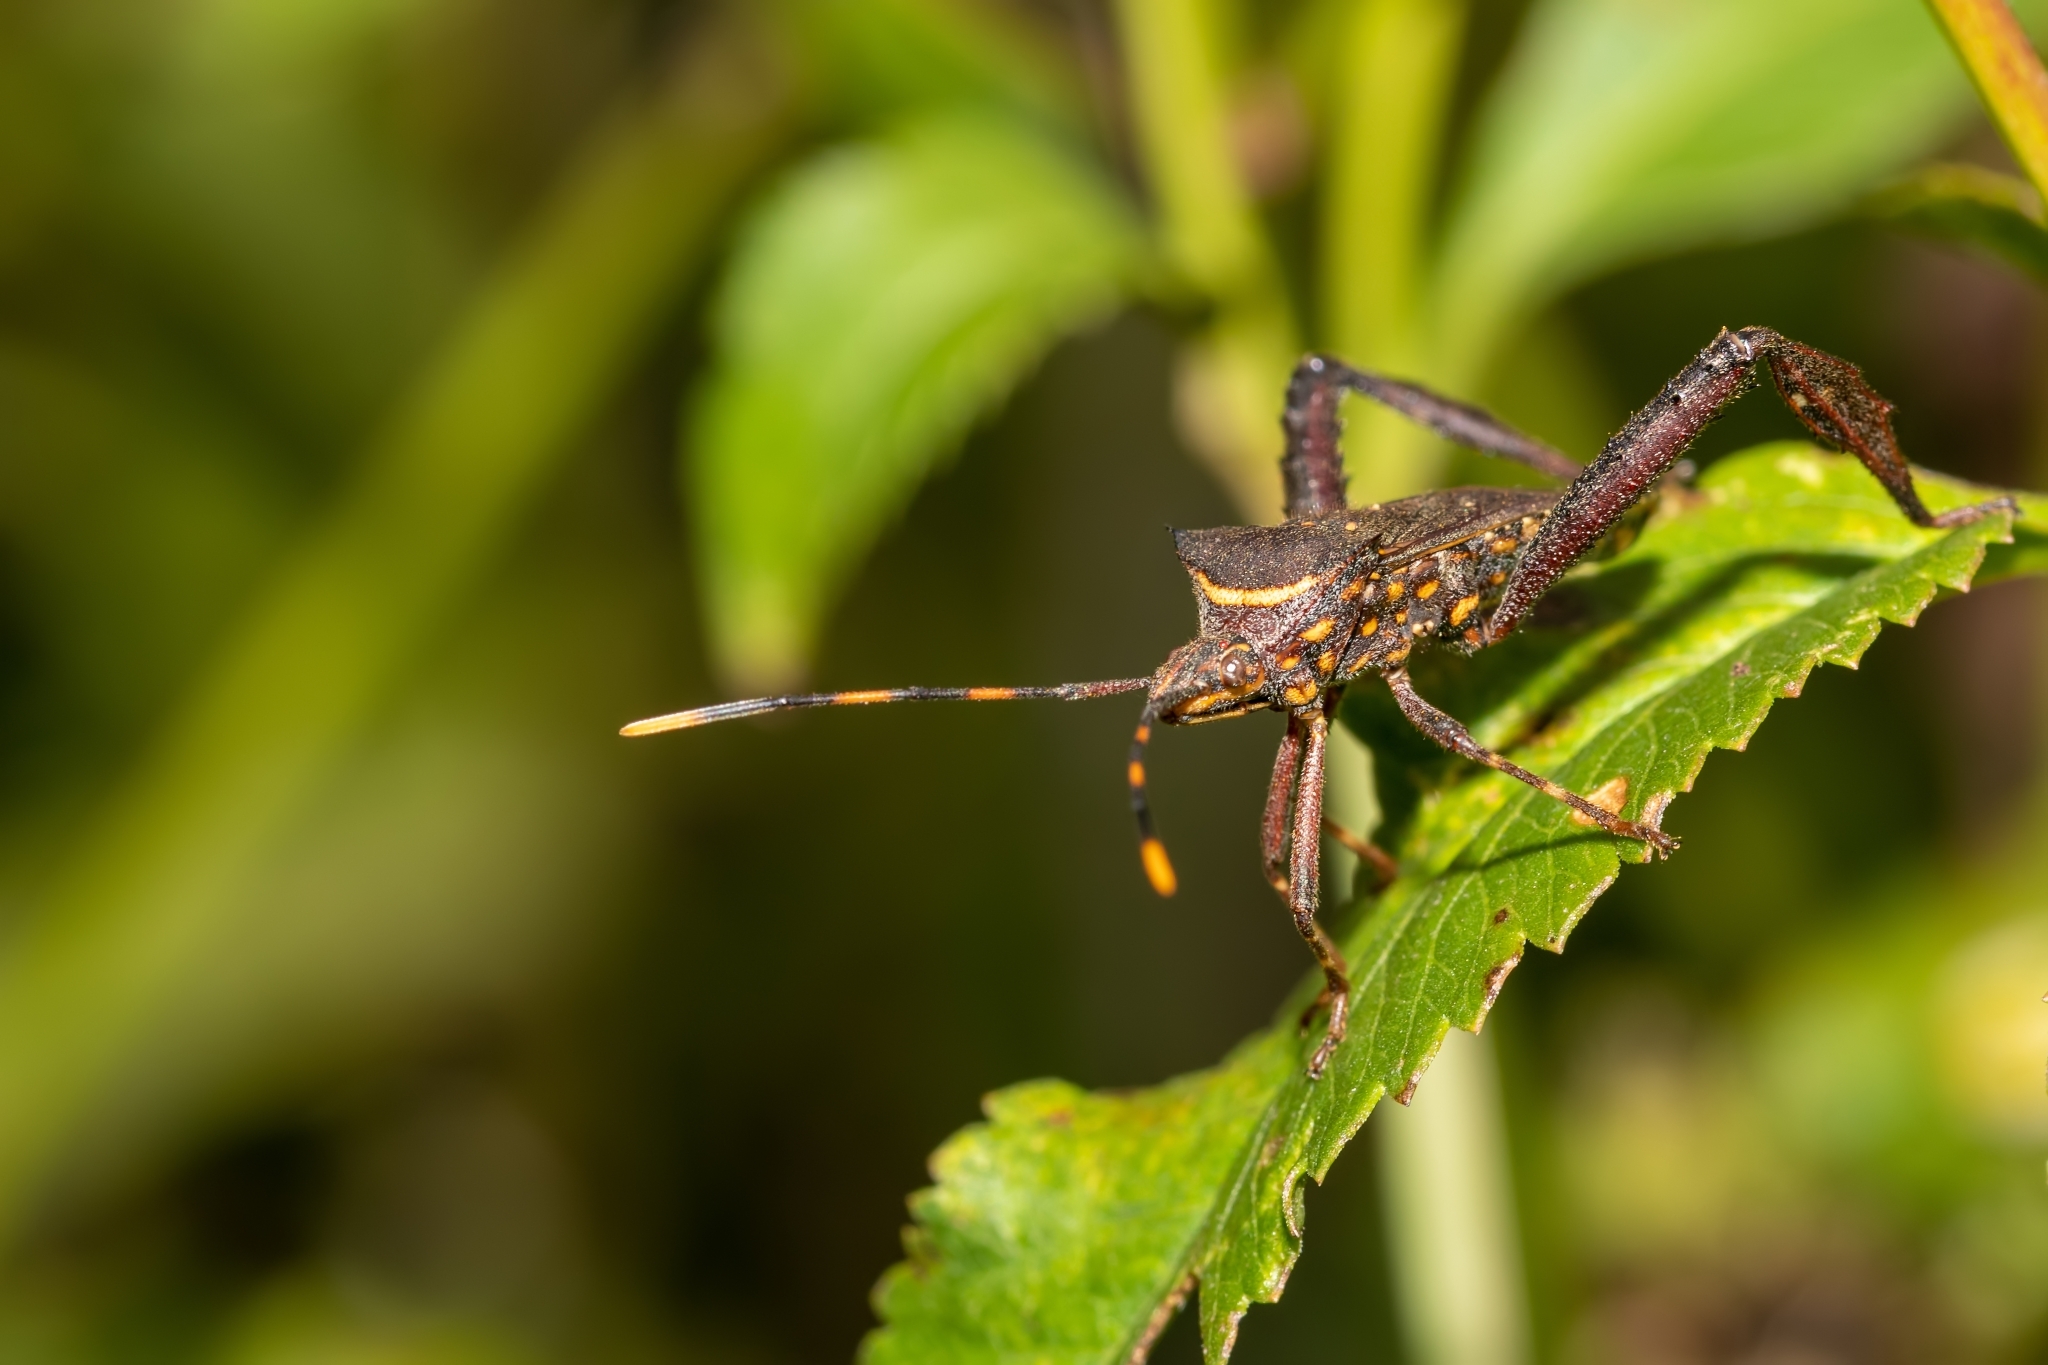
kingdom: Animalia
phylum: Arthropoda
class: Insecta
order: Hemiptera
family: Coreidae
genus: Leptoglossus
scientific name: Leptoglossus gonagra
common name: Citron bug
